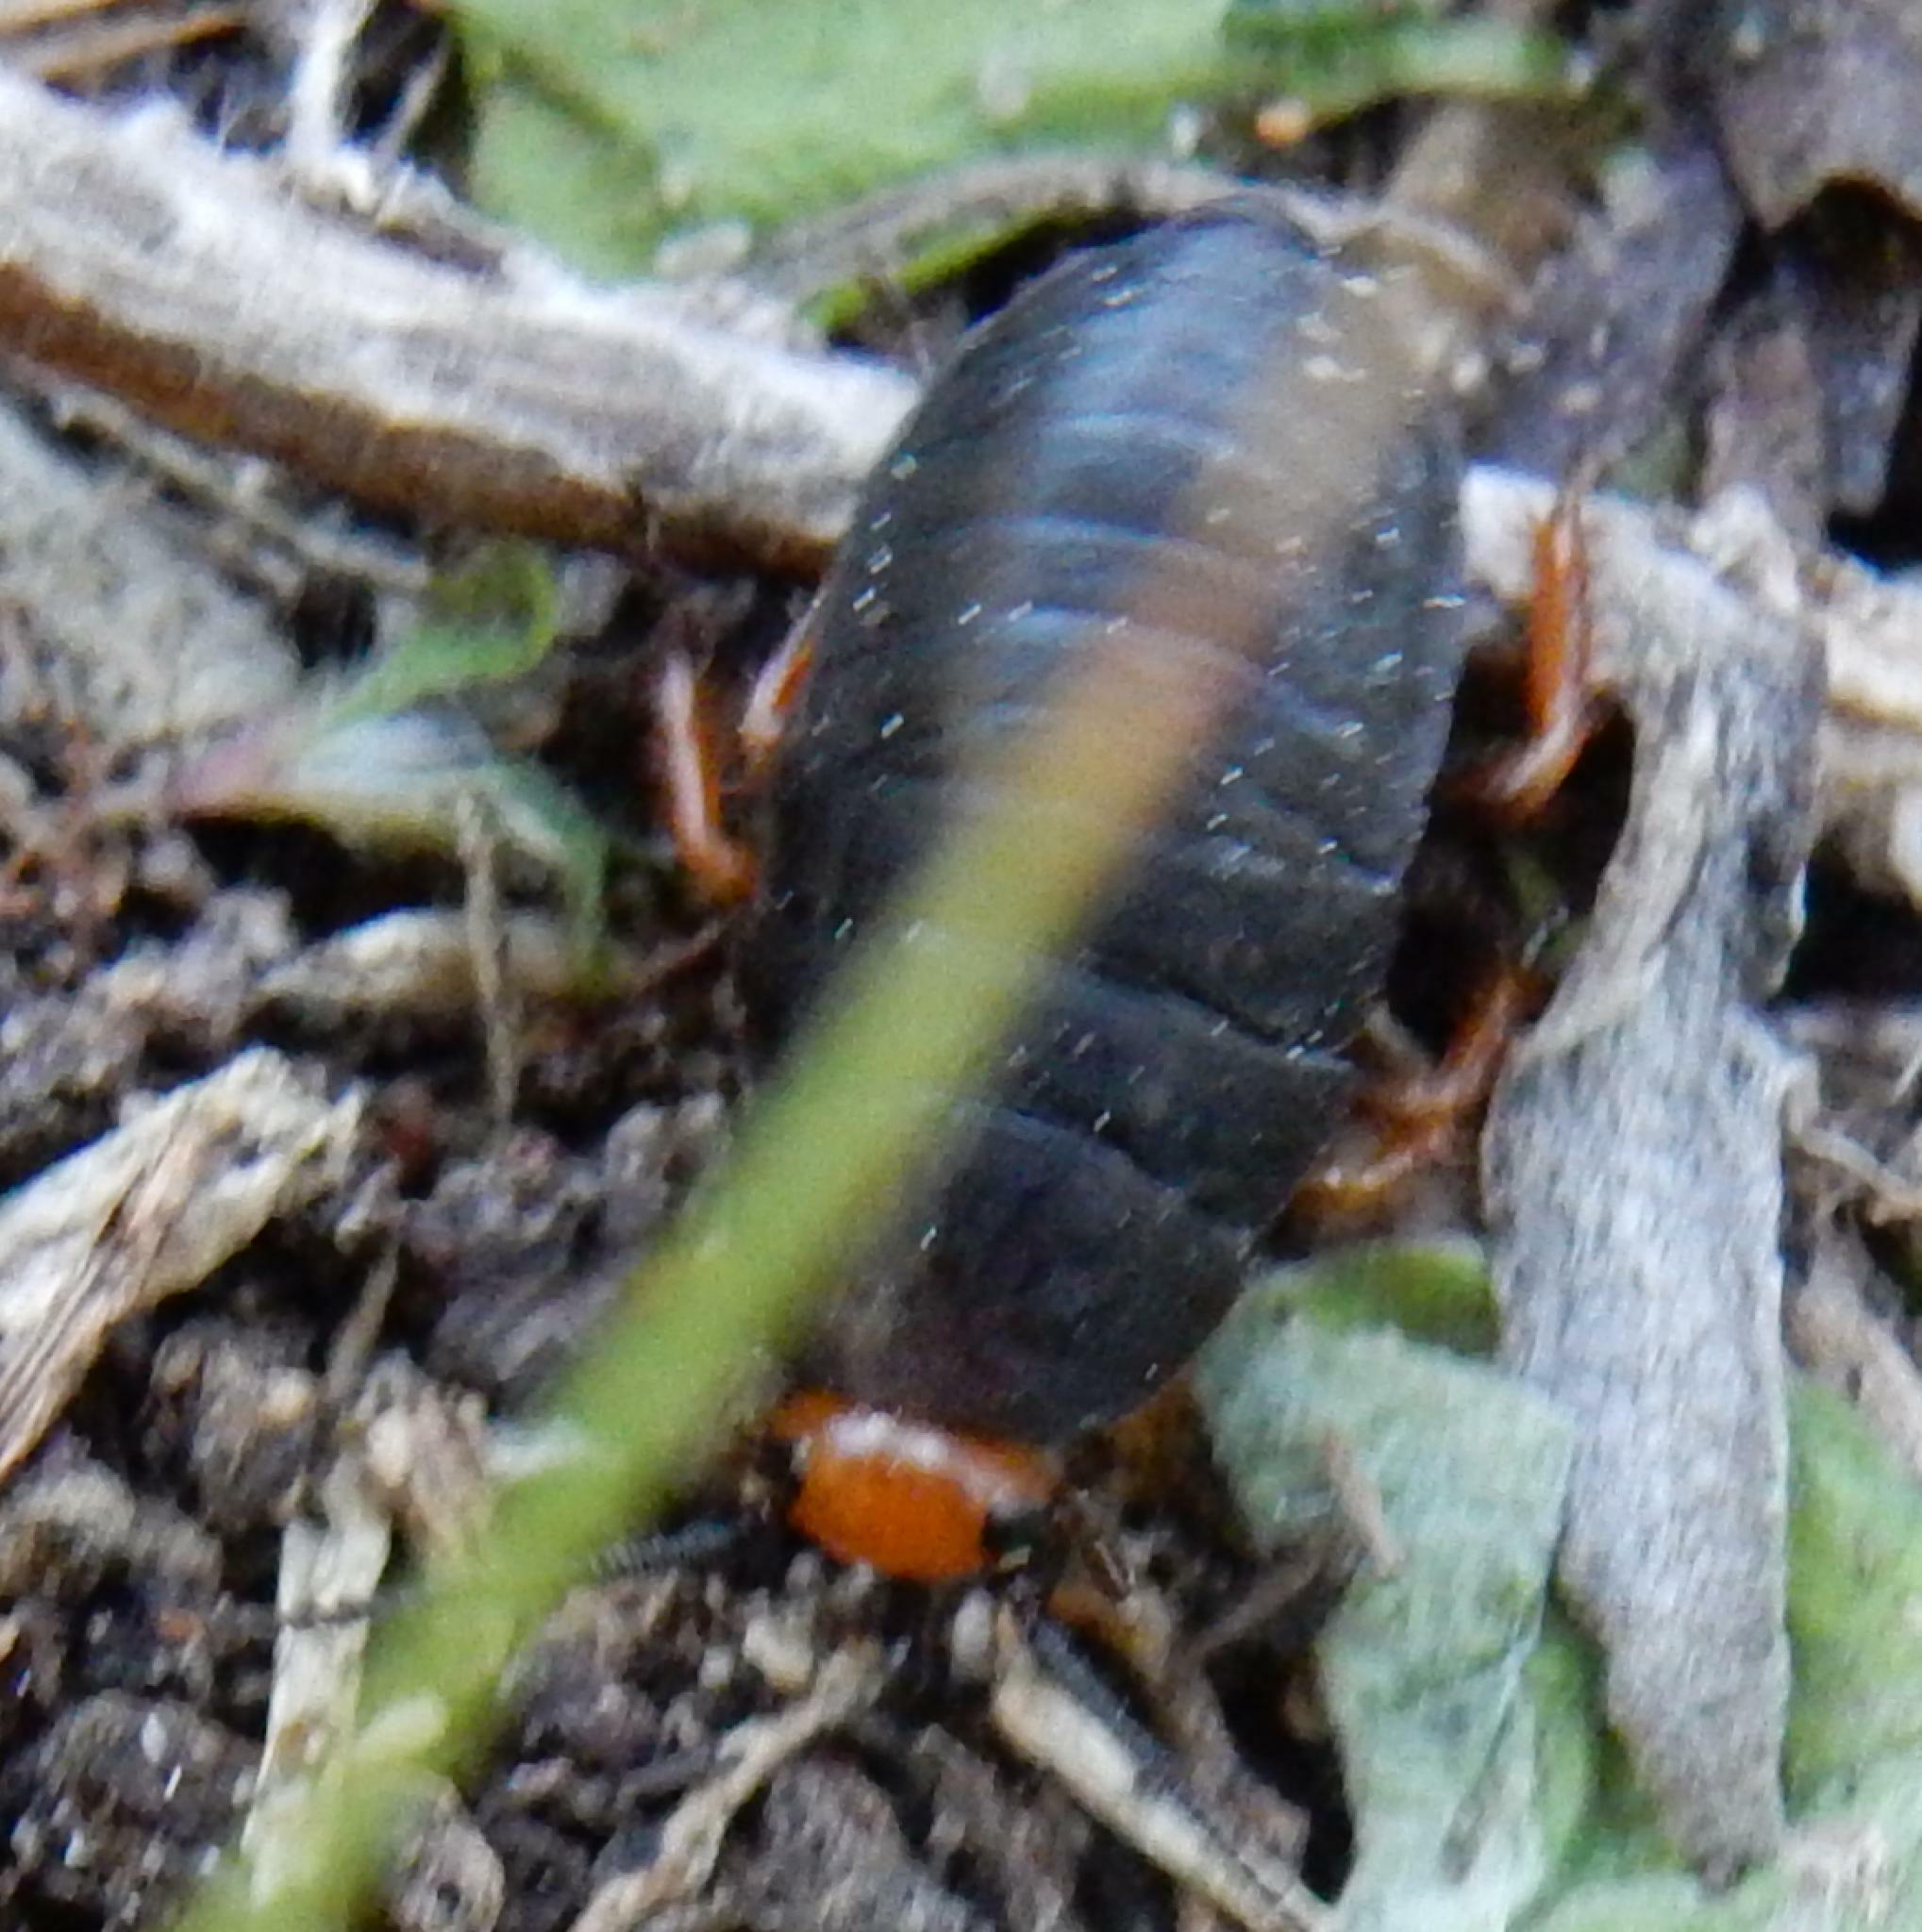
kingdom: Animalia
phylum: Arthropoda
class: Insecta
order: Blattodea
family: Blattidae
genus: Deropeltis
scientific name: Deropeltis erythrocephala
